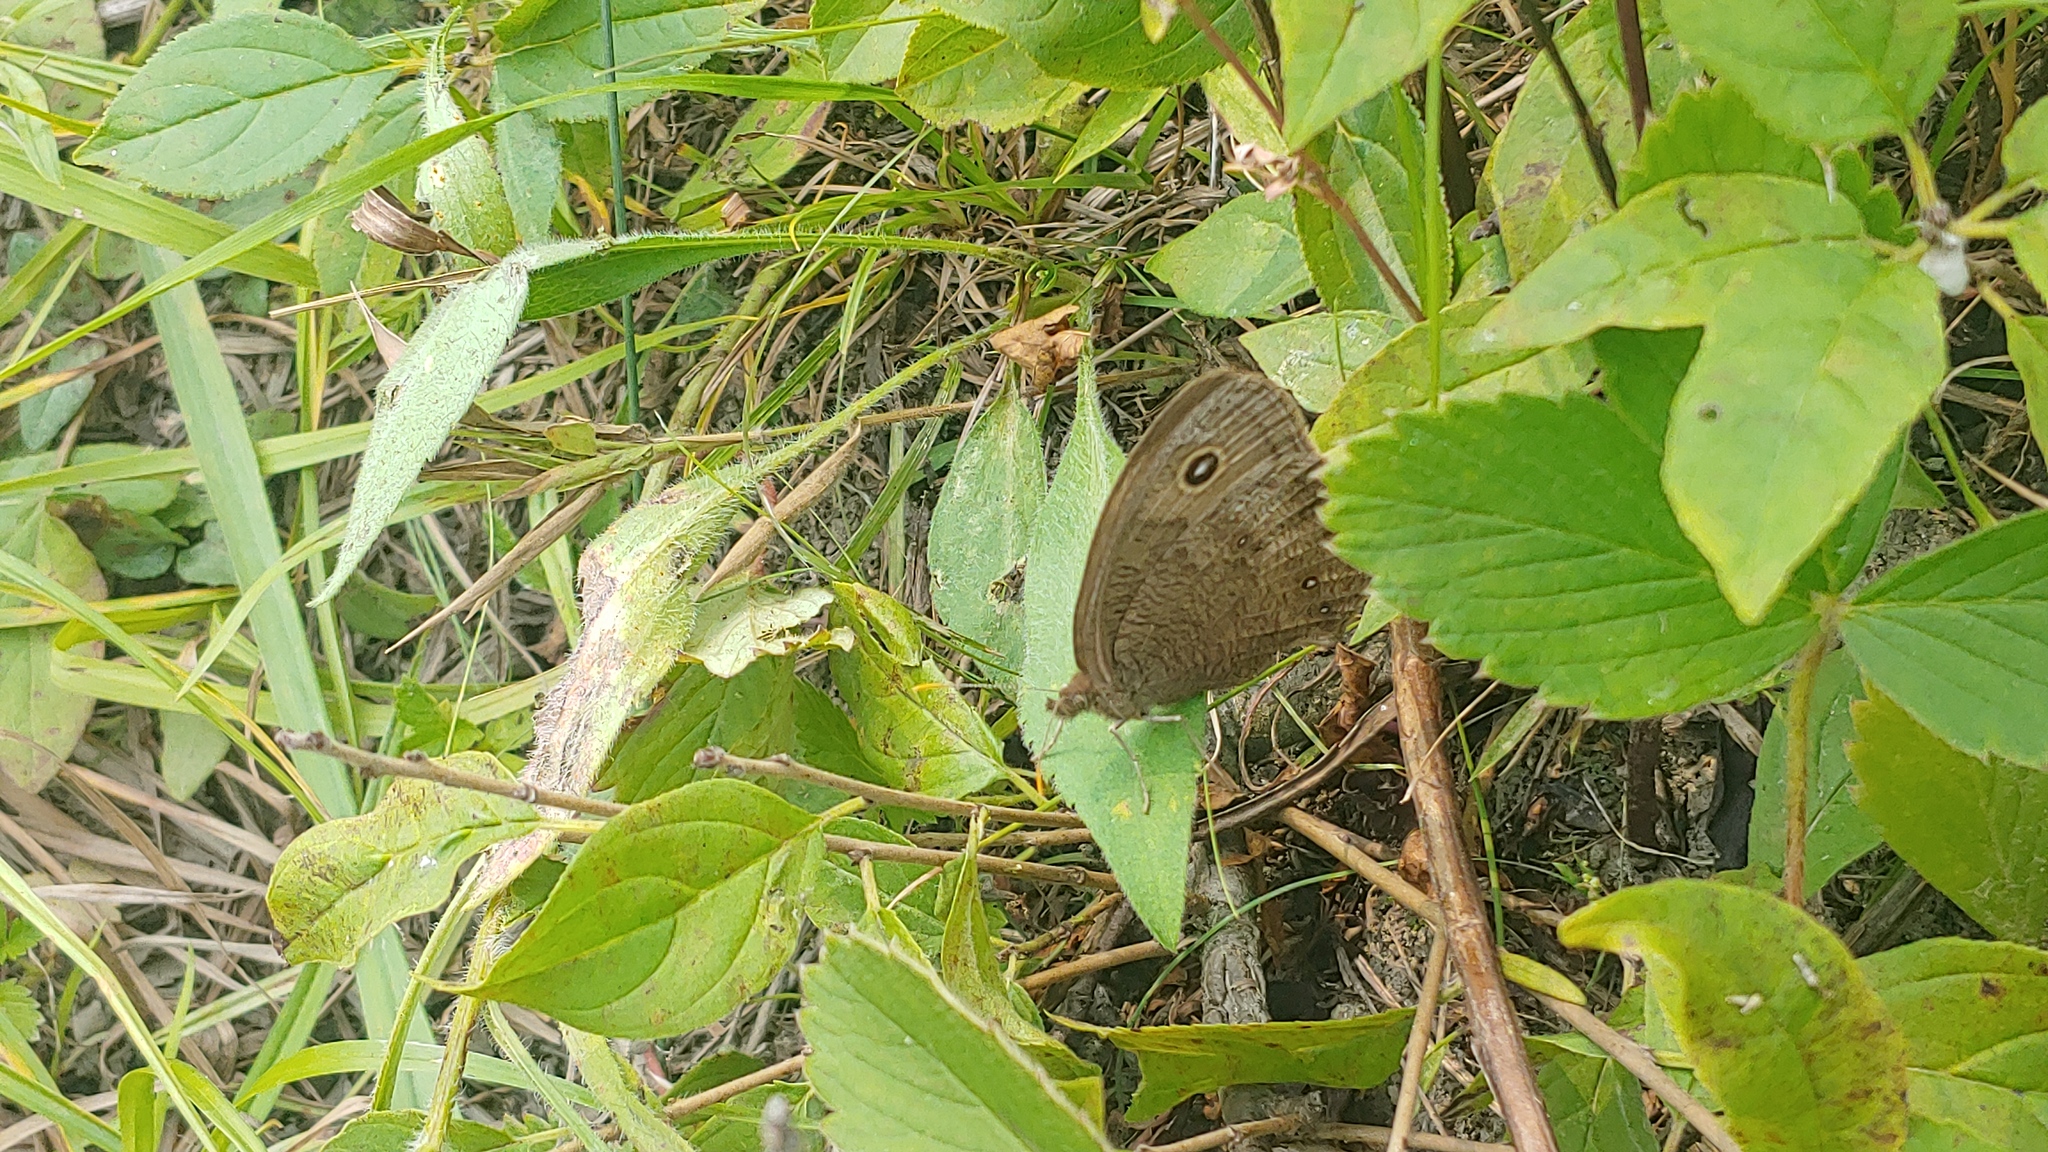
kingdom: Animalia
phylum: Arthropoda
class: Insecta
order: Lepidoptera
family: Nymphalidae
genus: Cercyonis
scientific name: Cercyonis pegala
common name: Common wood-nymph
